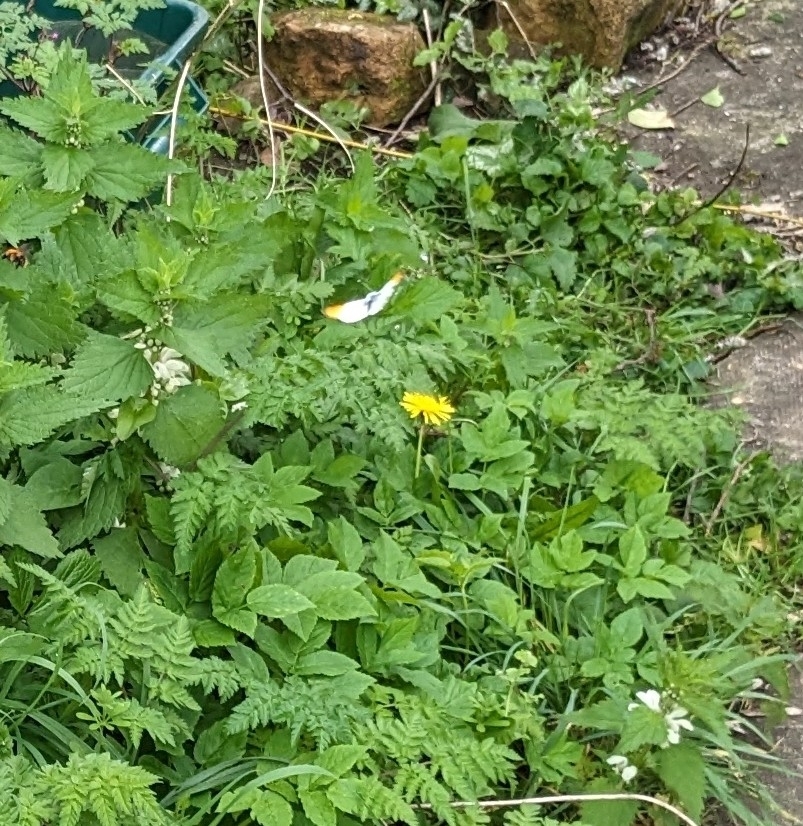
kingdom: Animalia
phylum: Arthropoda
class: Insecta
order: Lepidoptera
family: Pieridae
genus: Anthocharis
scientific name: Anthocharis cardamines
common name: Orange-tip
